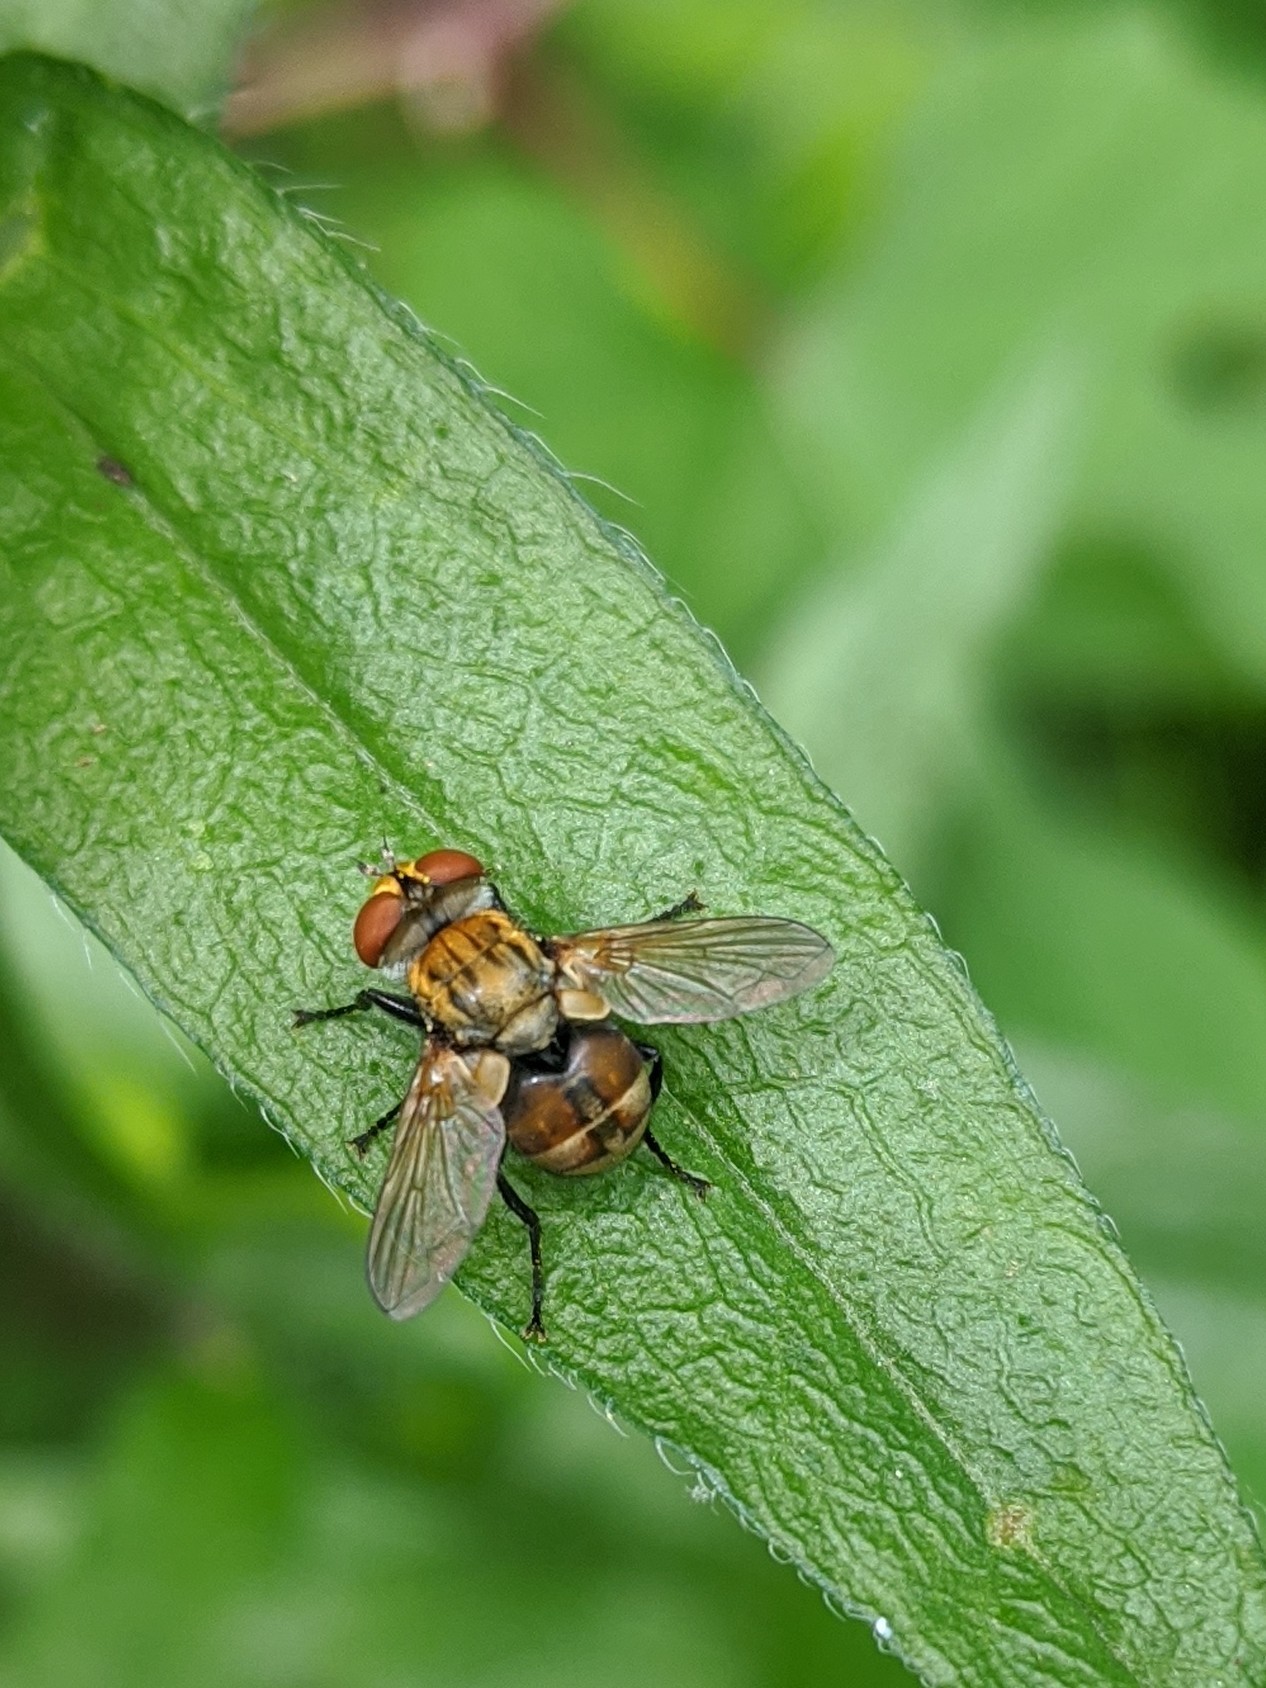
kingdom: Animalia
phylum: Arthropoda
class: Insecta
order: Diptera
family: Tachinidae
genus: Gymnoclytia
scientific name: Gymnoclytia occidua
